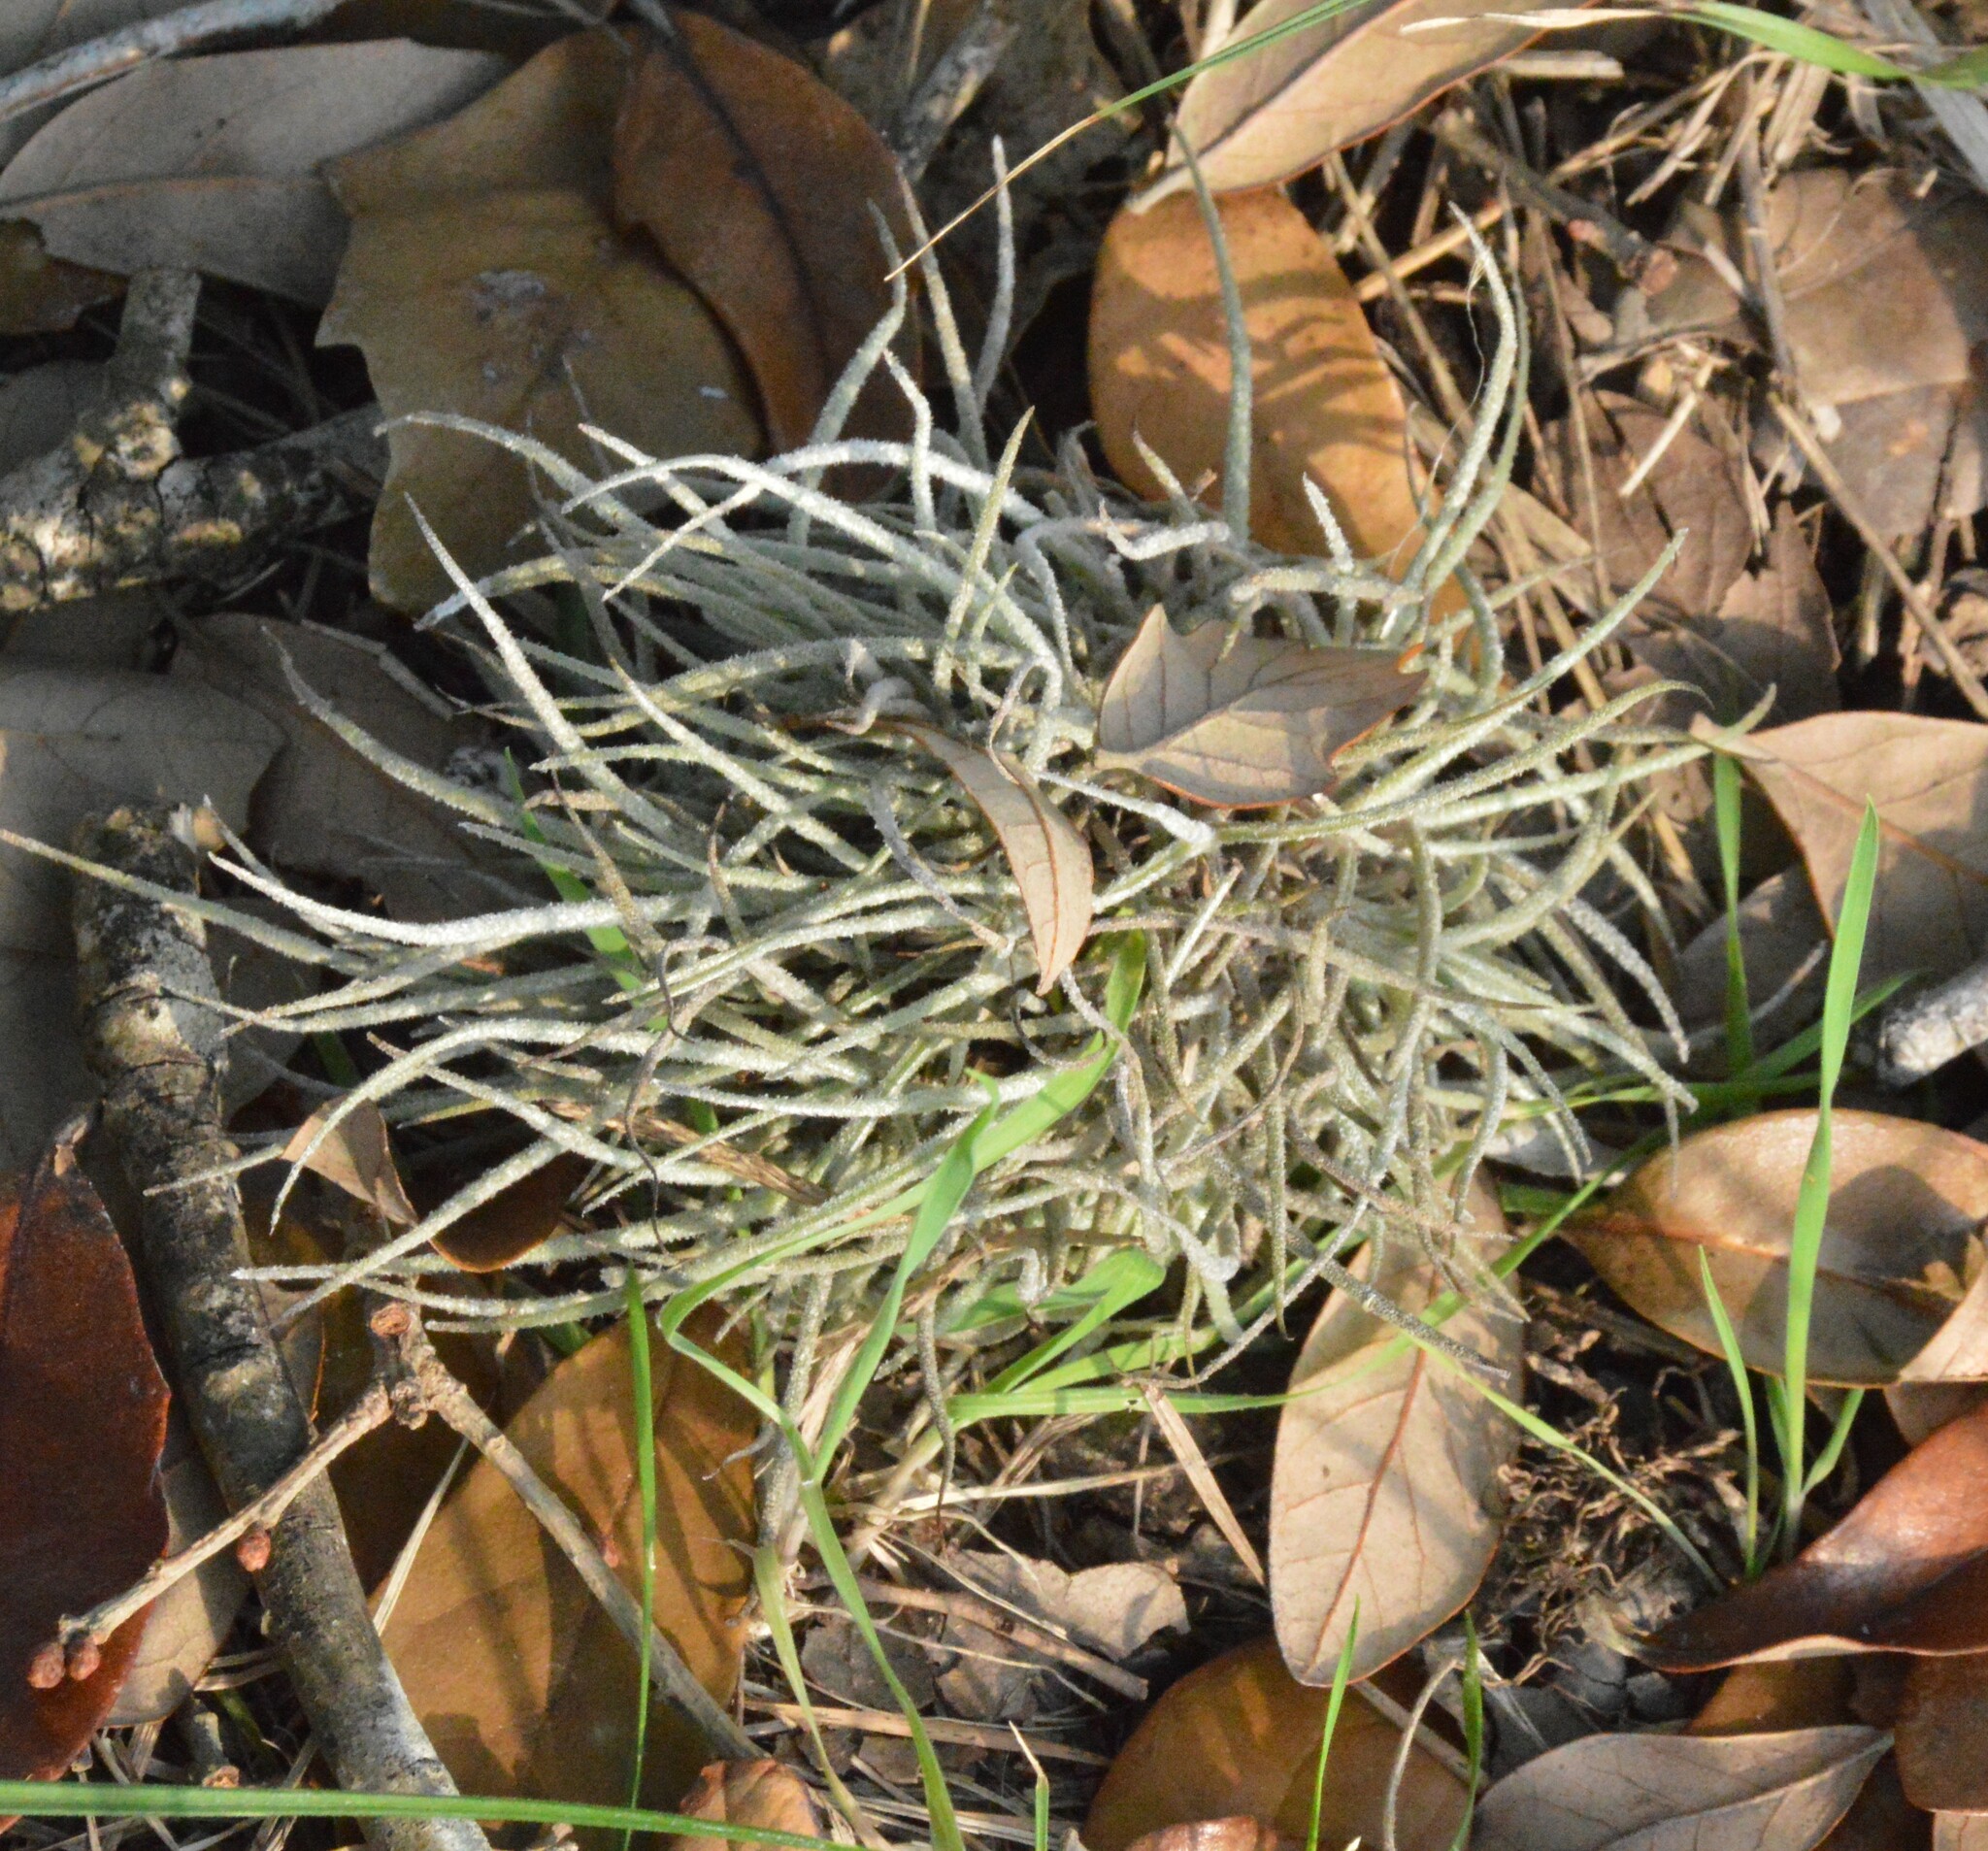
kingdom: Plantae
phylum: Tracheophyta
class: Liliopsida
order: Poales
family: Bromeliaceae
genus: Tillandsia
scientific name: Tillandsia recurvata
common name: Small ballmoss
